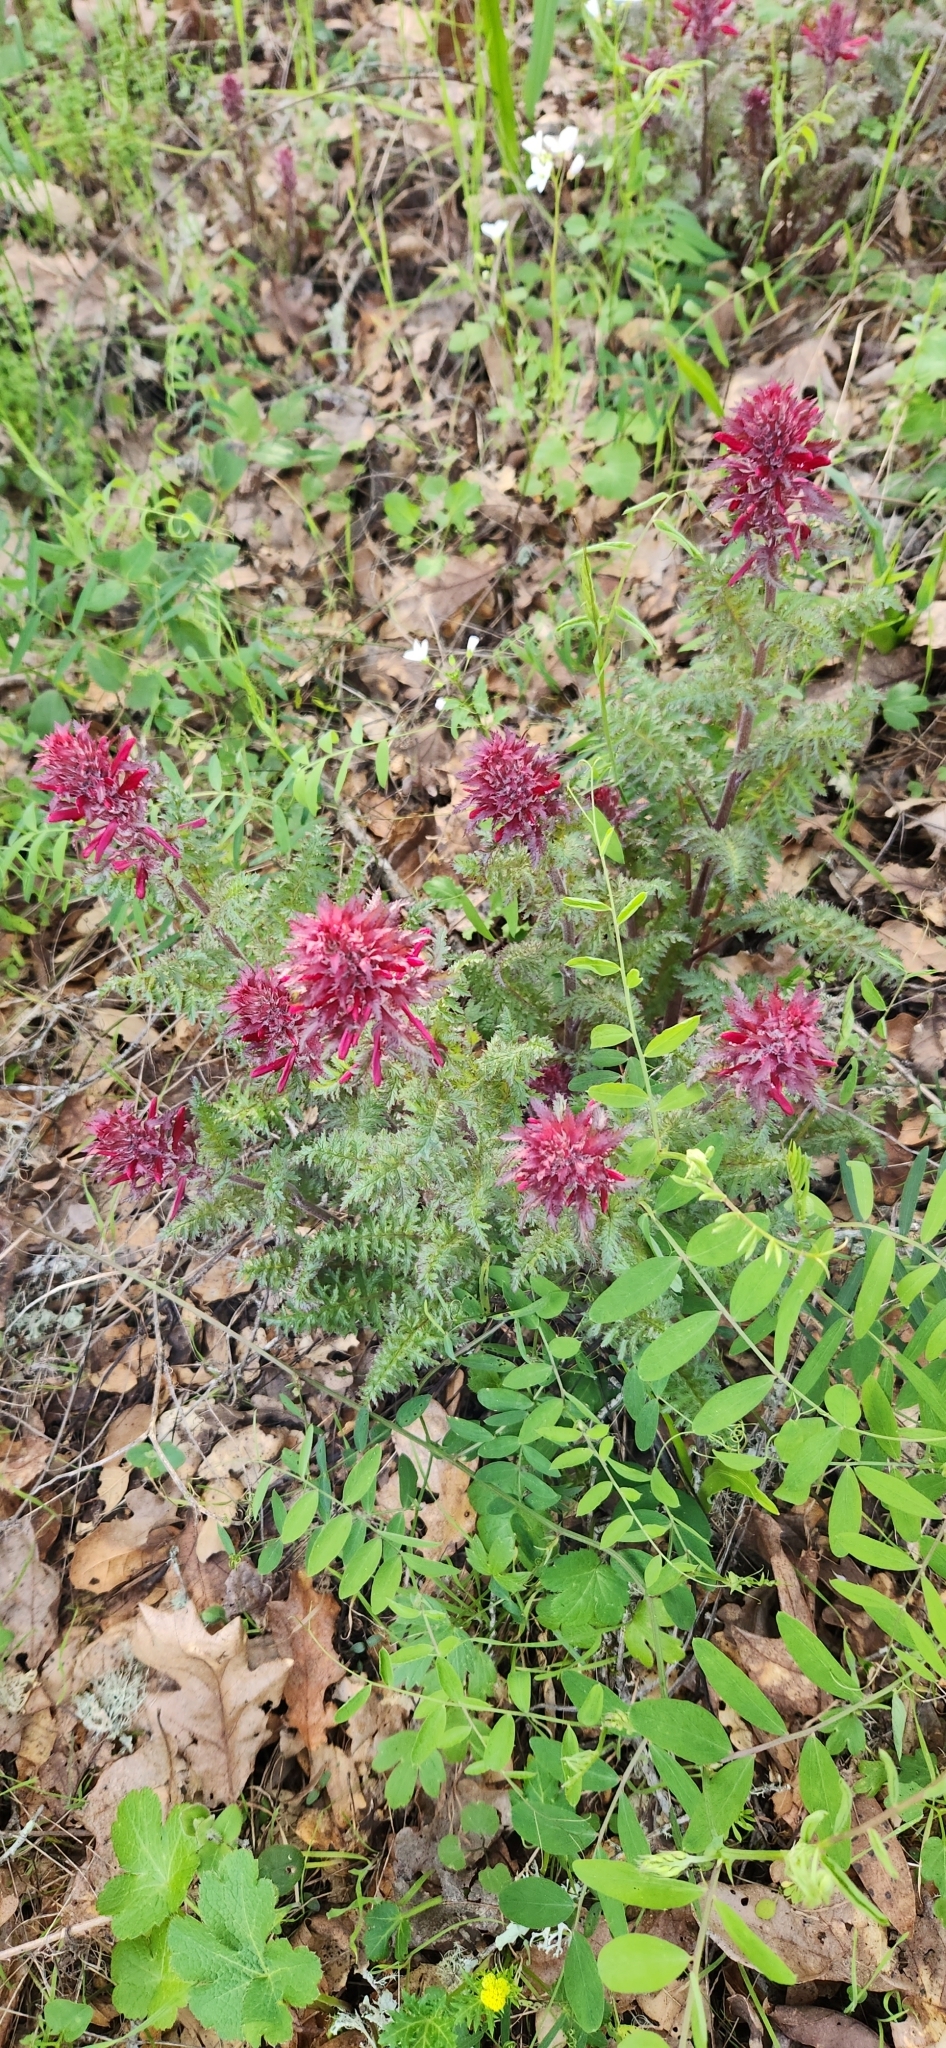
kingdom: Plantae
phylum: Tracheophyta
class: Magnoliopsida
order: Lamiales
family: Orobanchaceae
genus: Pedicularis
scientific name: Pedicularis densiflora
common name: Indian warrior
